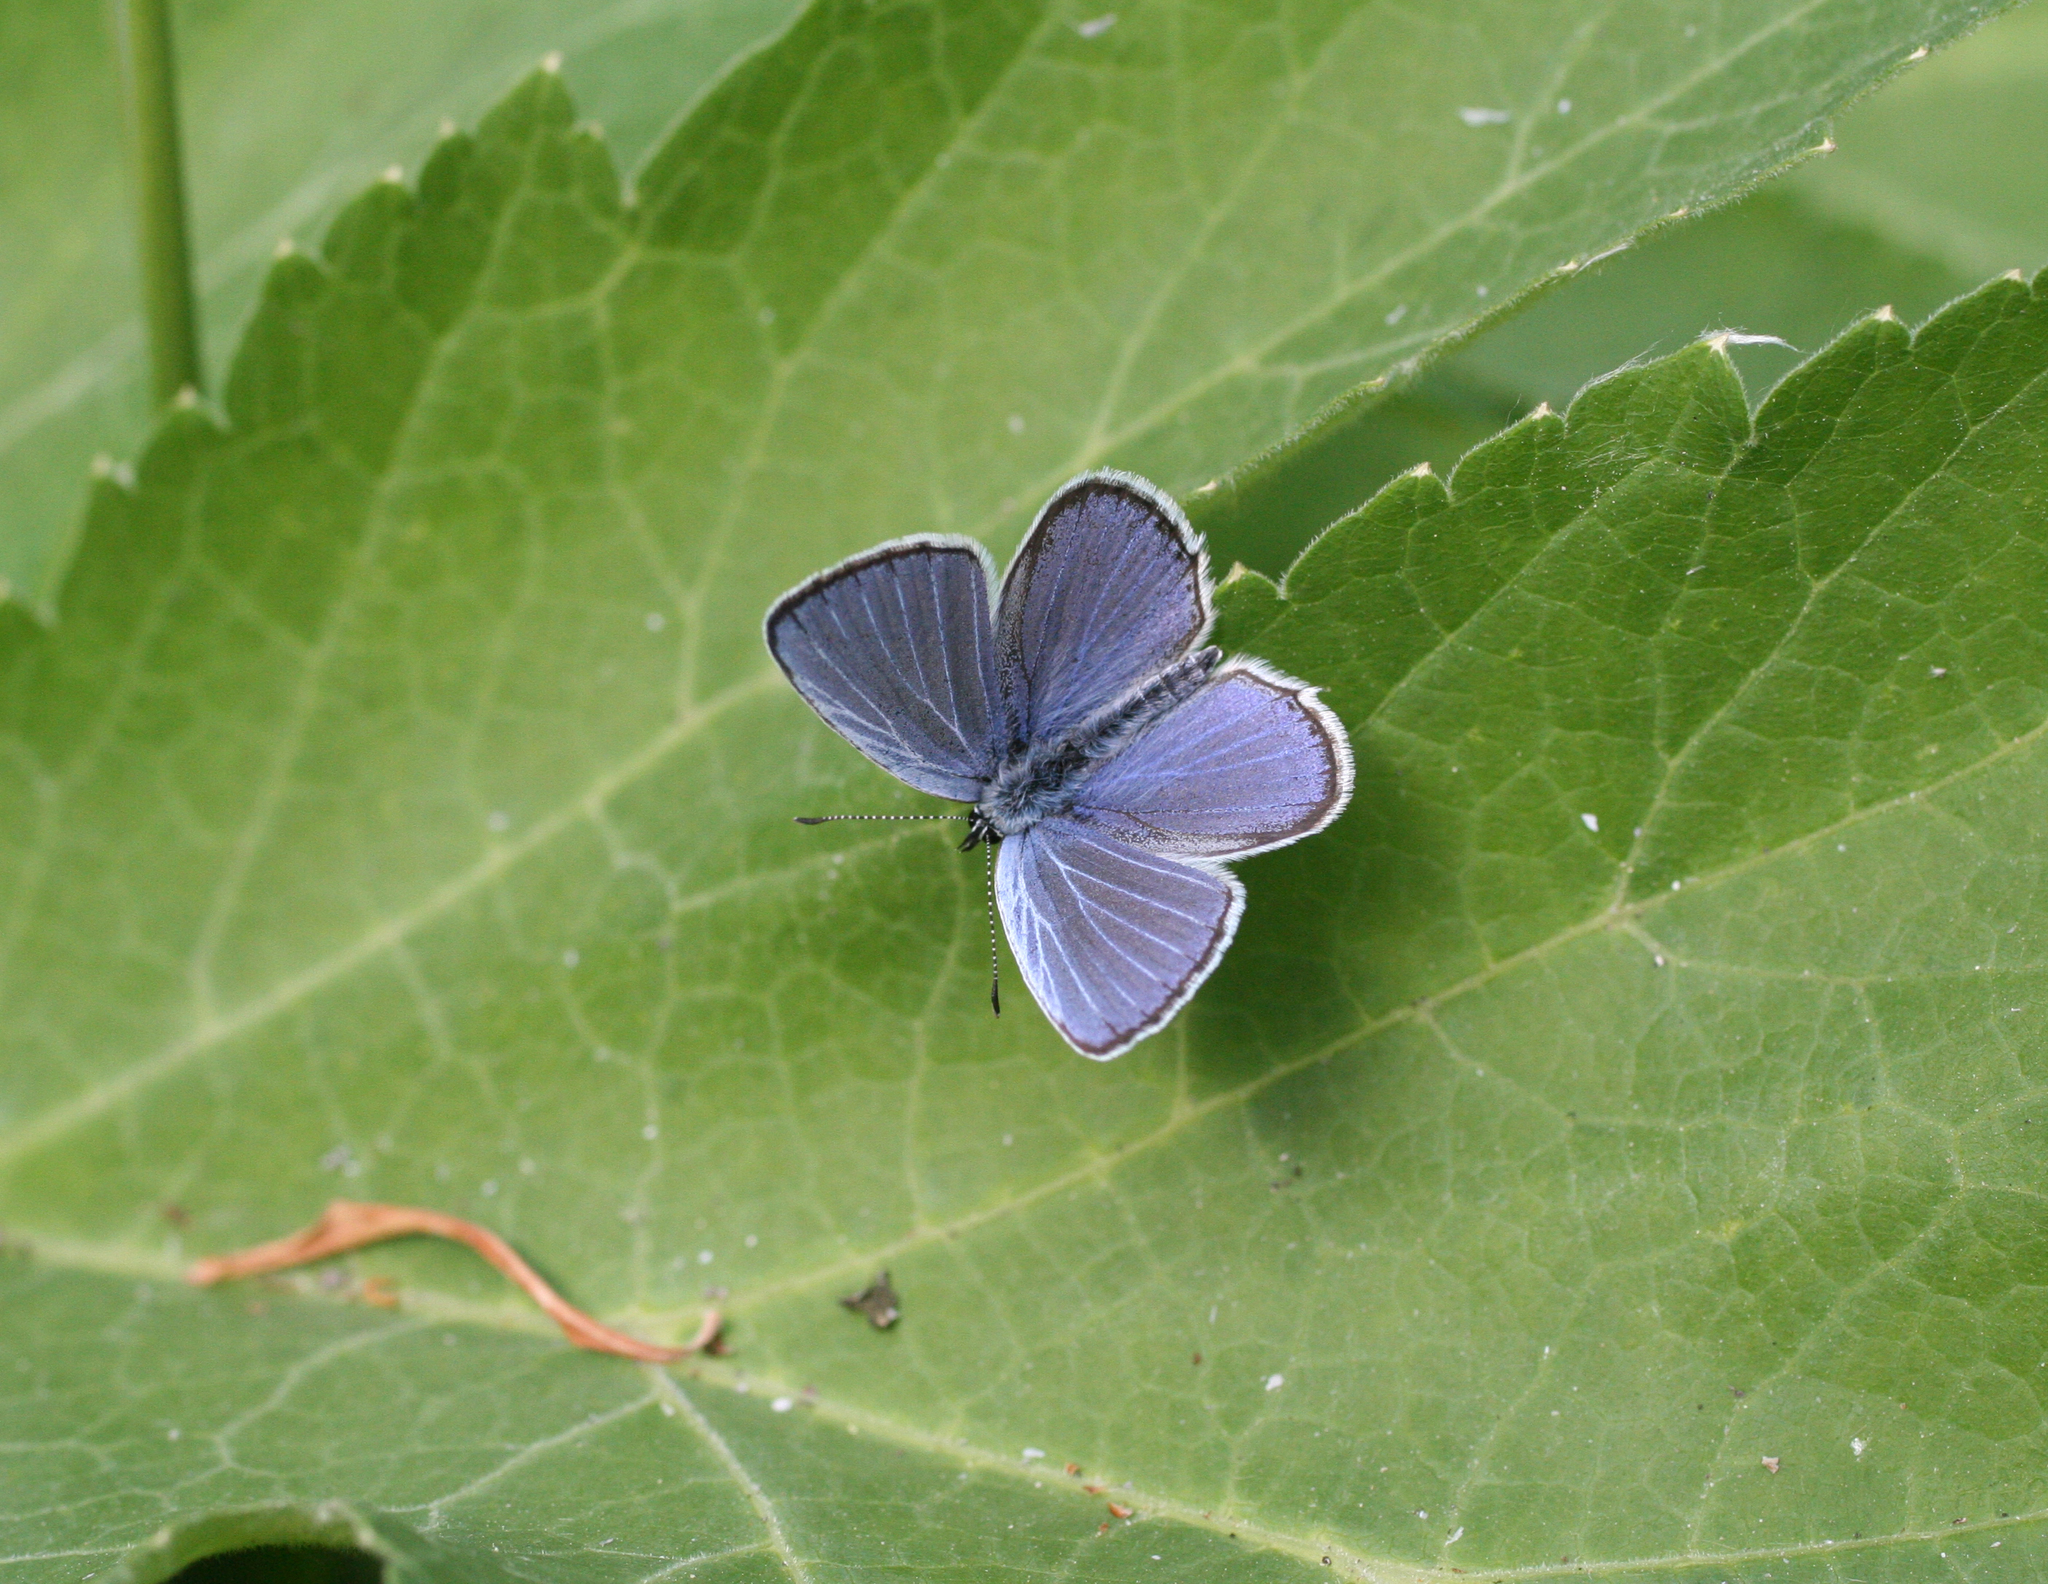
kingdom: Animalia
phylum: Arthropoda
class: Insecta
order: Lepidoptera
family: Lycaenidae
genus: Elkalyce
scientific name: Elkalyce alcetas
